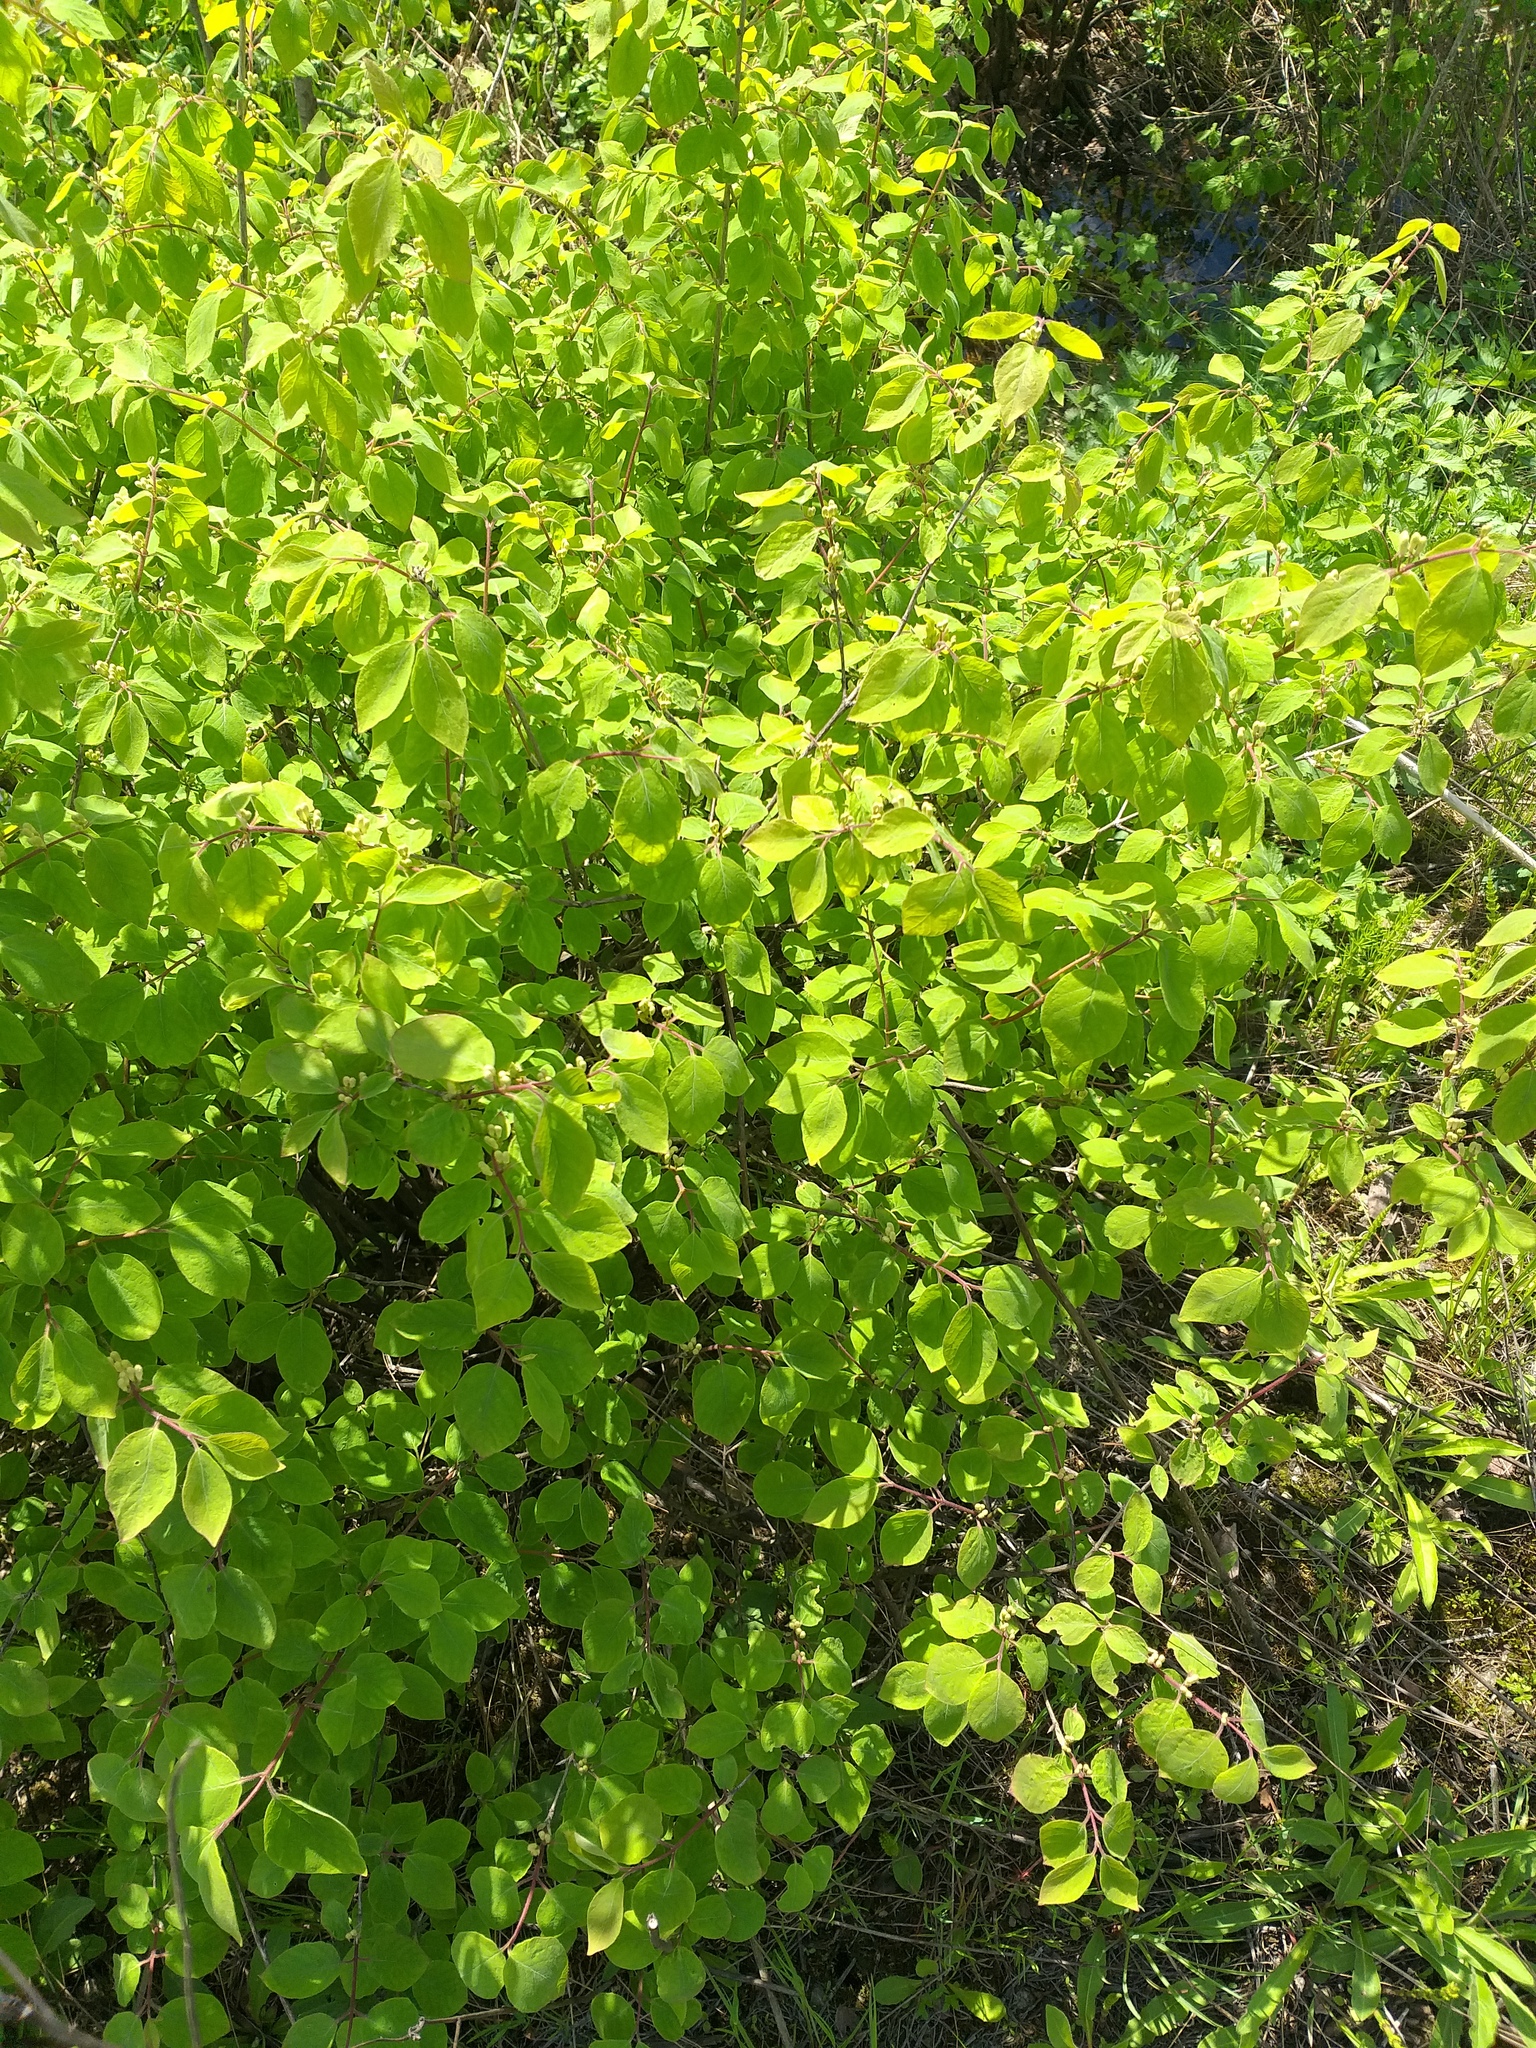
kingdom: Plantae
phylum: Tracheophyta
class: Magnoliopsida
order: Dipsacales
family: Caprifoliaceae
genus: Lonicera
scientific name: Lonicera xylosteum
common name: Fly honeysuckle
